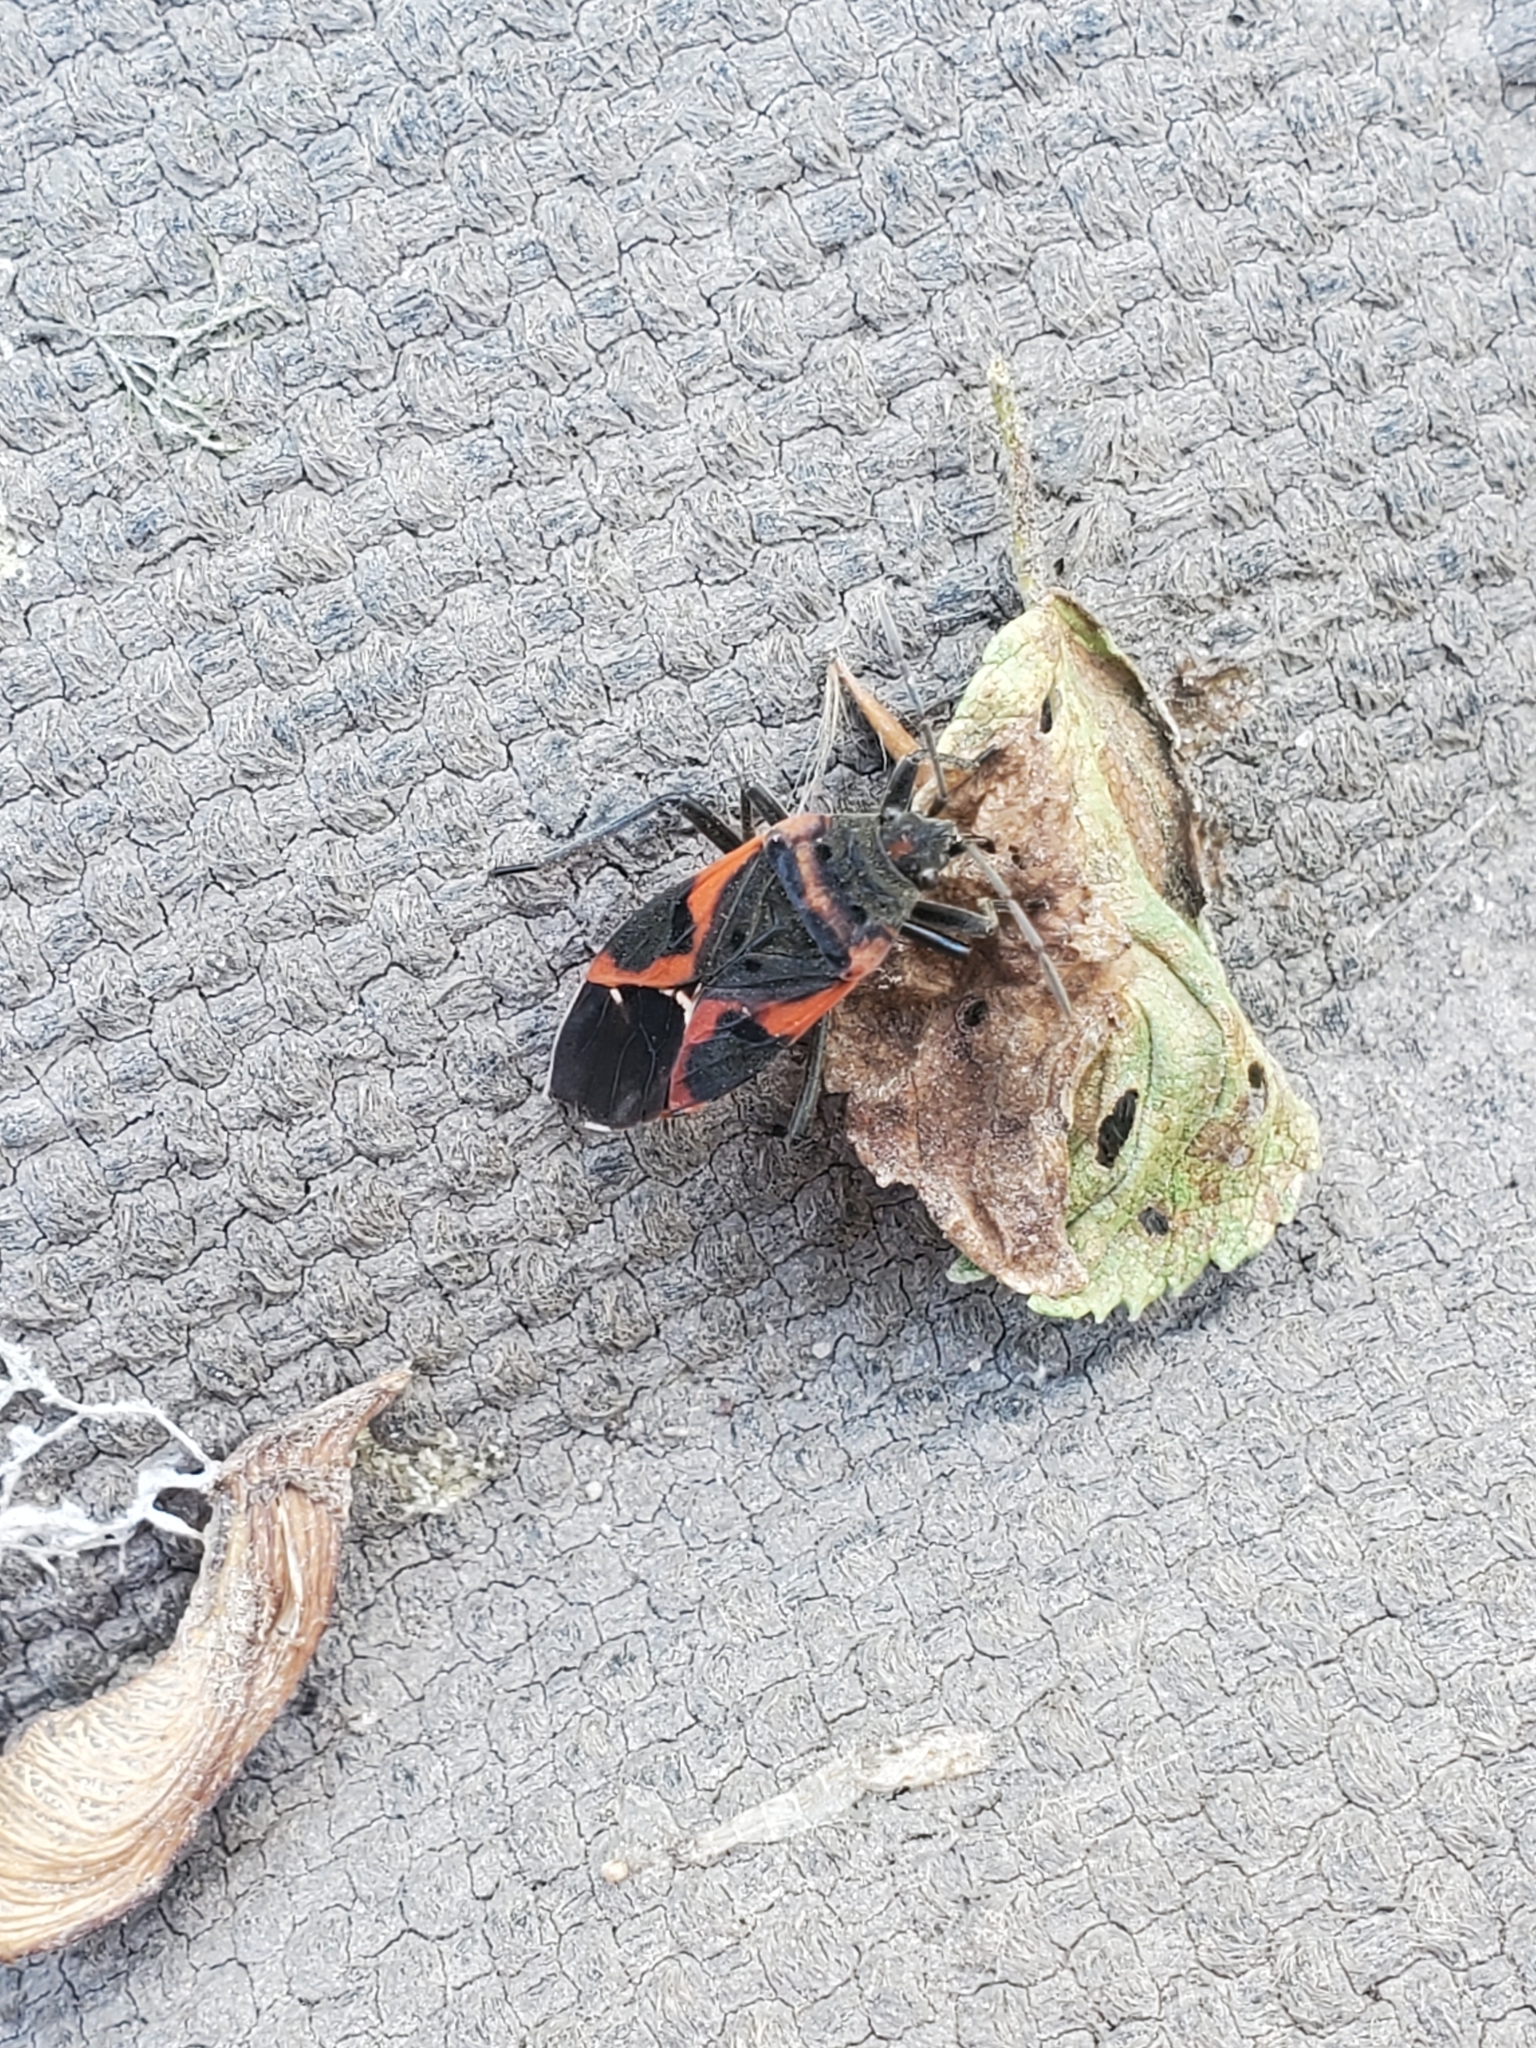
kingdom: Animalia
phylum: Arthropoda
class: Insecta
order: Hemiptera
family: Lygaeidae
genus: Lygaeus
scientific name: Lygaeus kalmii
